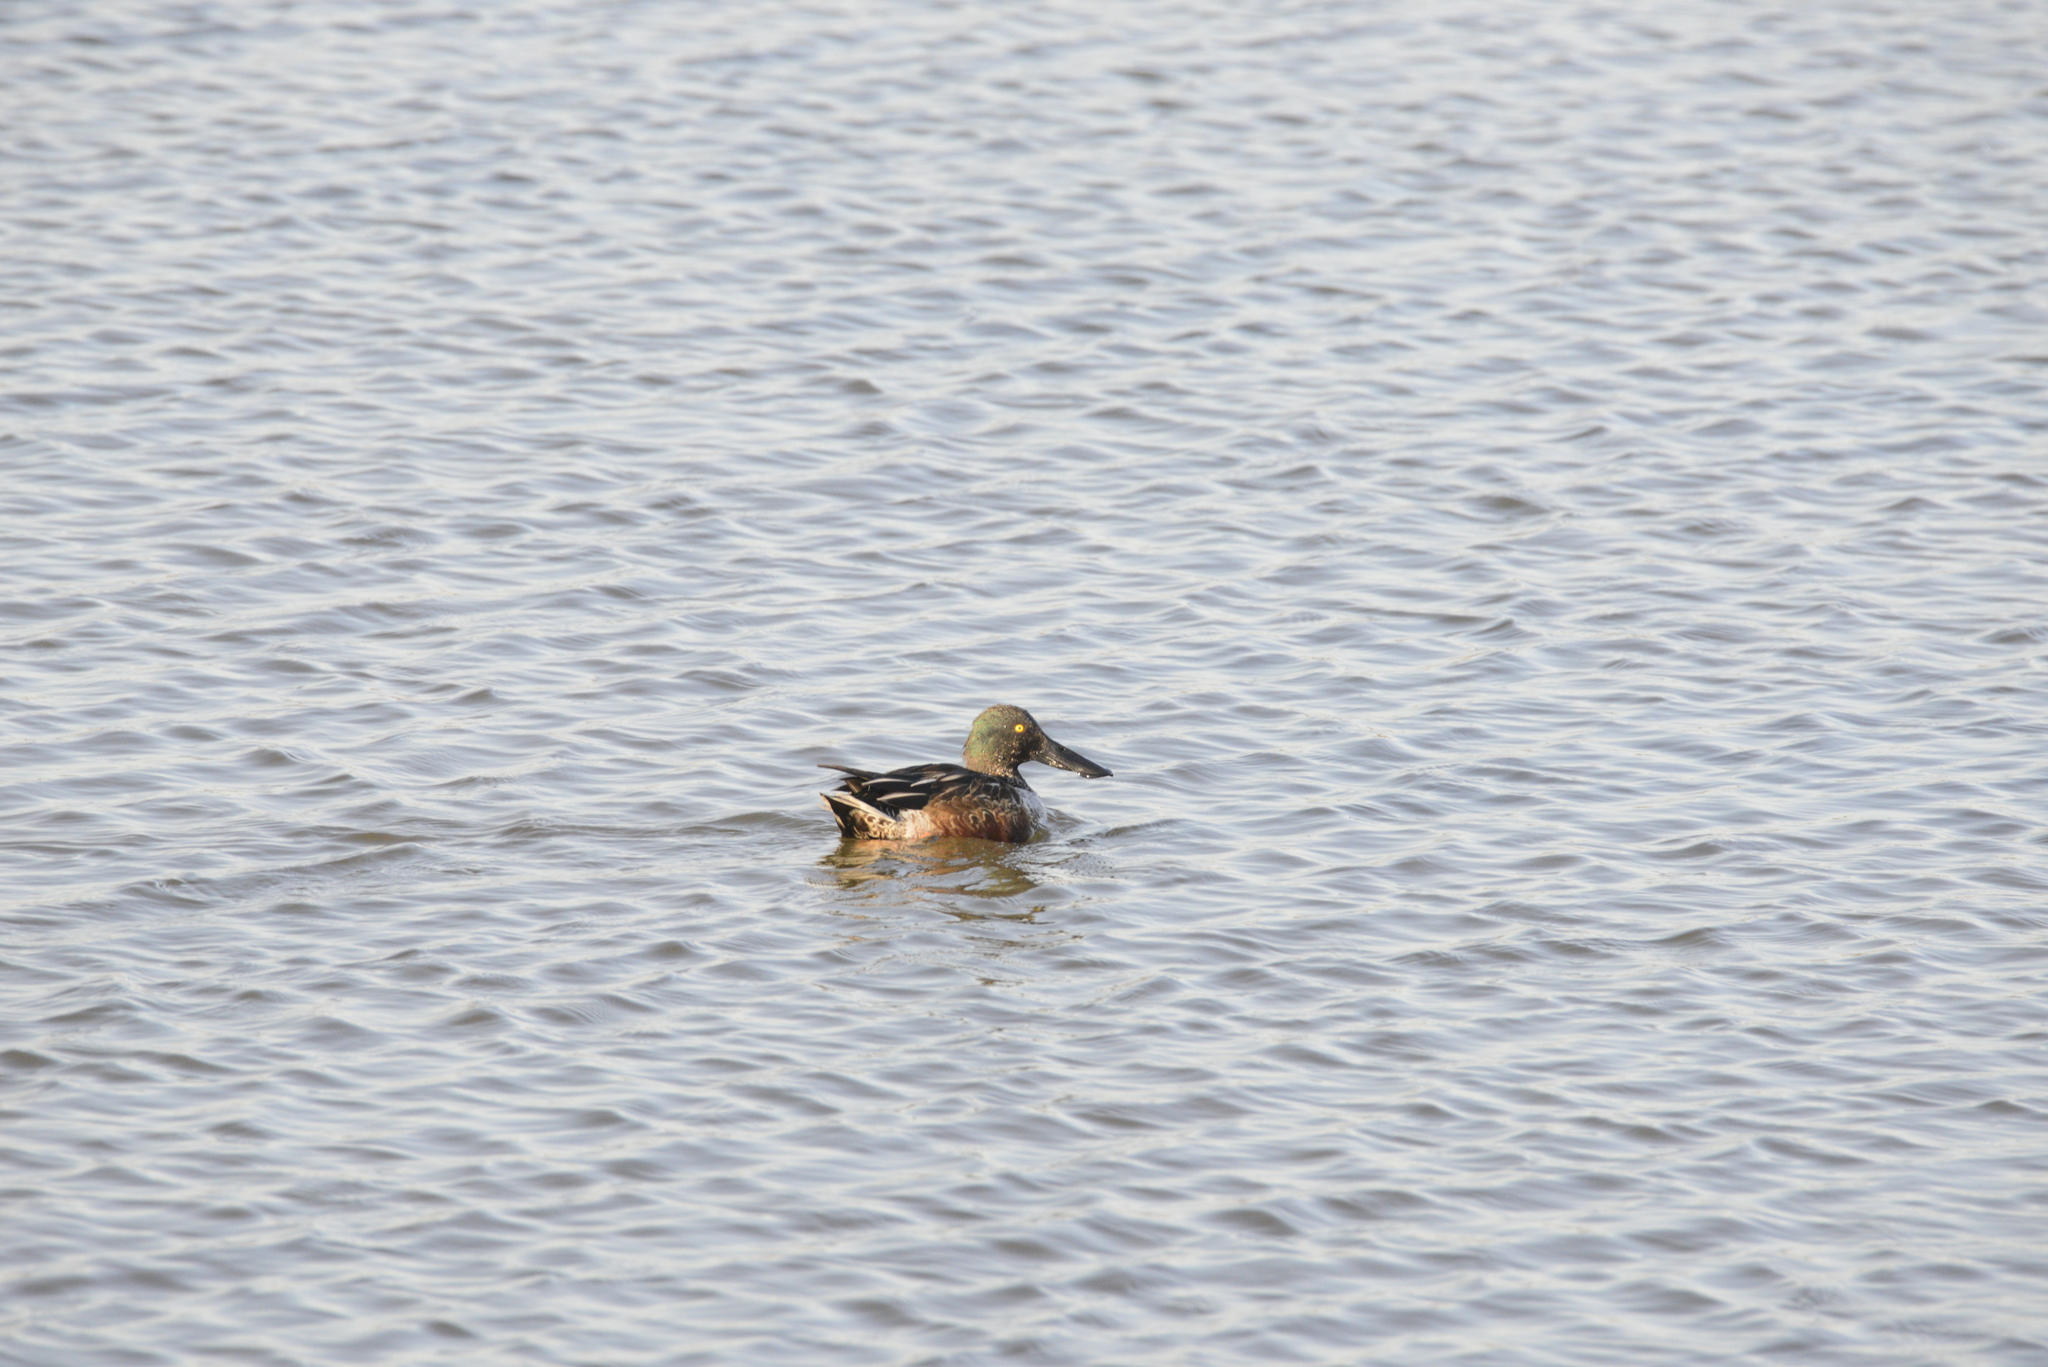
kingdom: Animalia
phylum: Chordata
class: Aves
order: Anseriformes
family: Anatidae
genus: Spatula
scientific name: Spatula clypeata
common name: Northern shoveler
